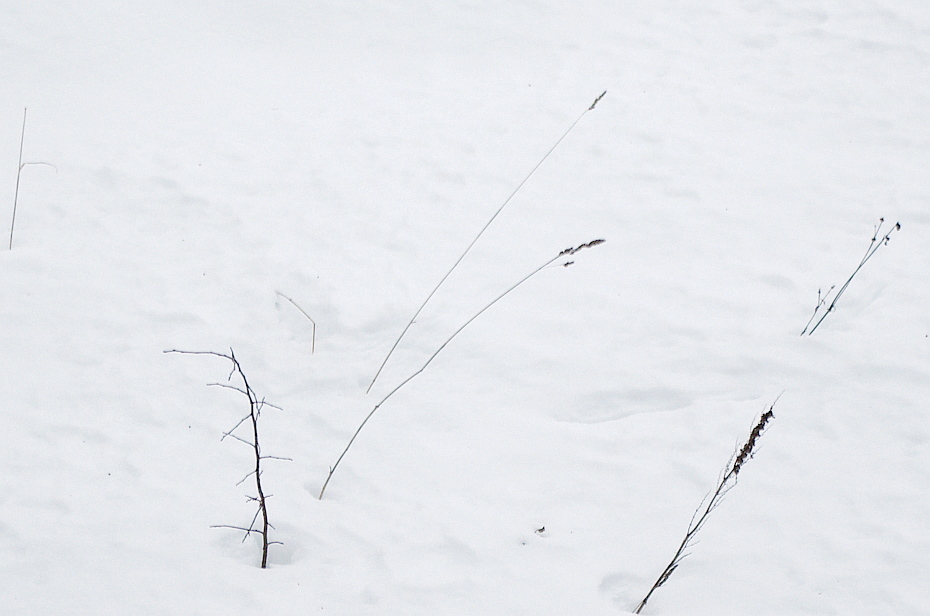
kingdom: Plantae
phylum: Tracheophyta
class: Liliopsida
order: Poales
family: Poaceae
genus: Dactylis
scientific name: Dactylis glomerata
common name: Orchardgrass
